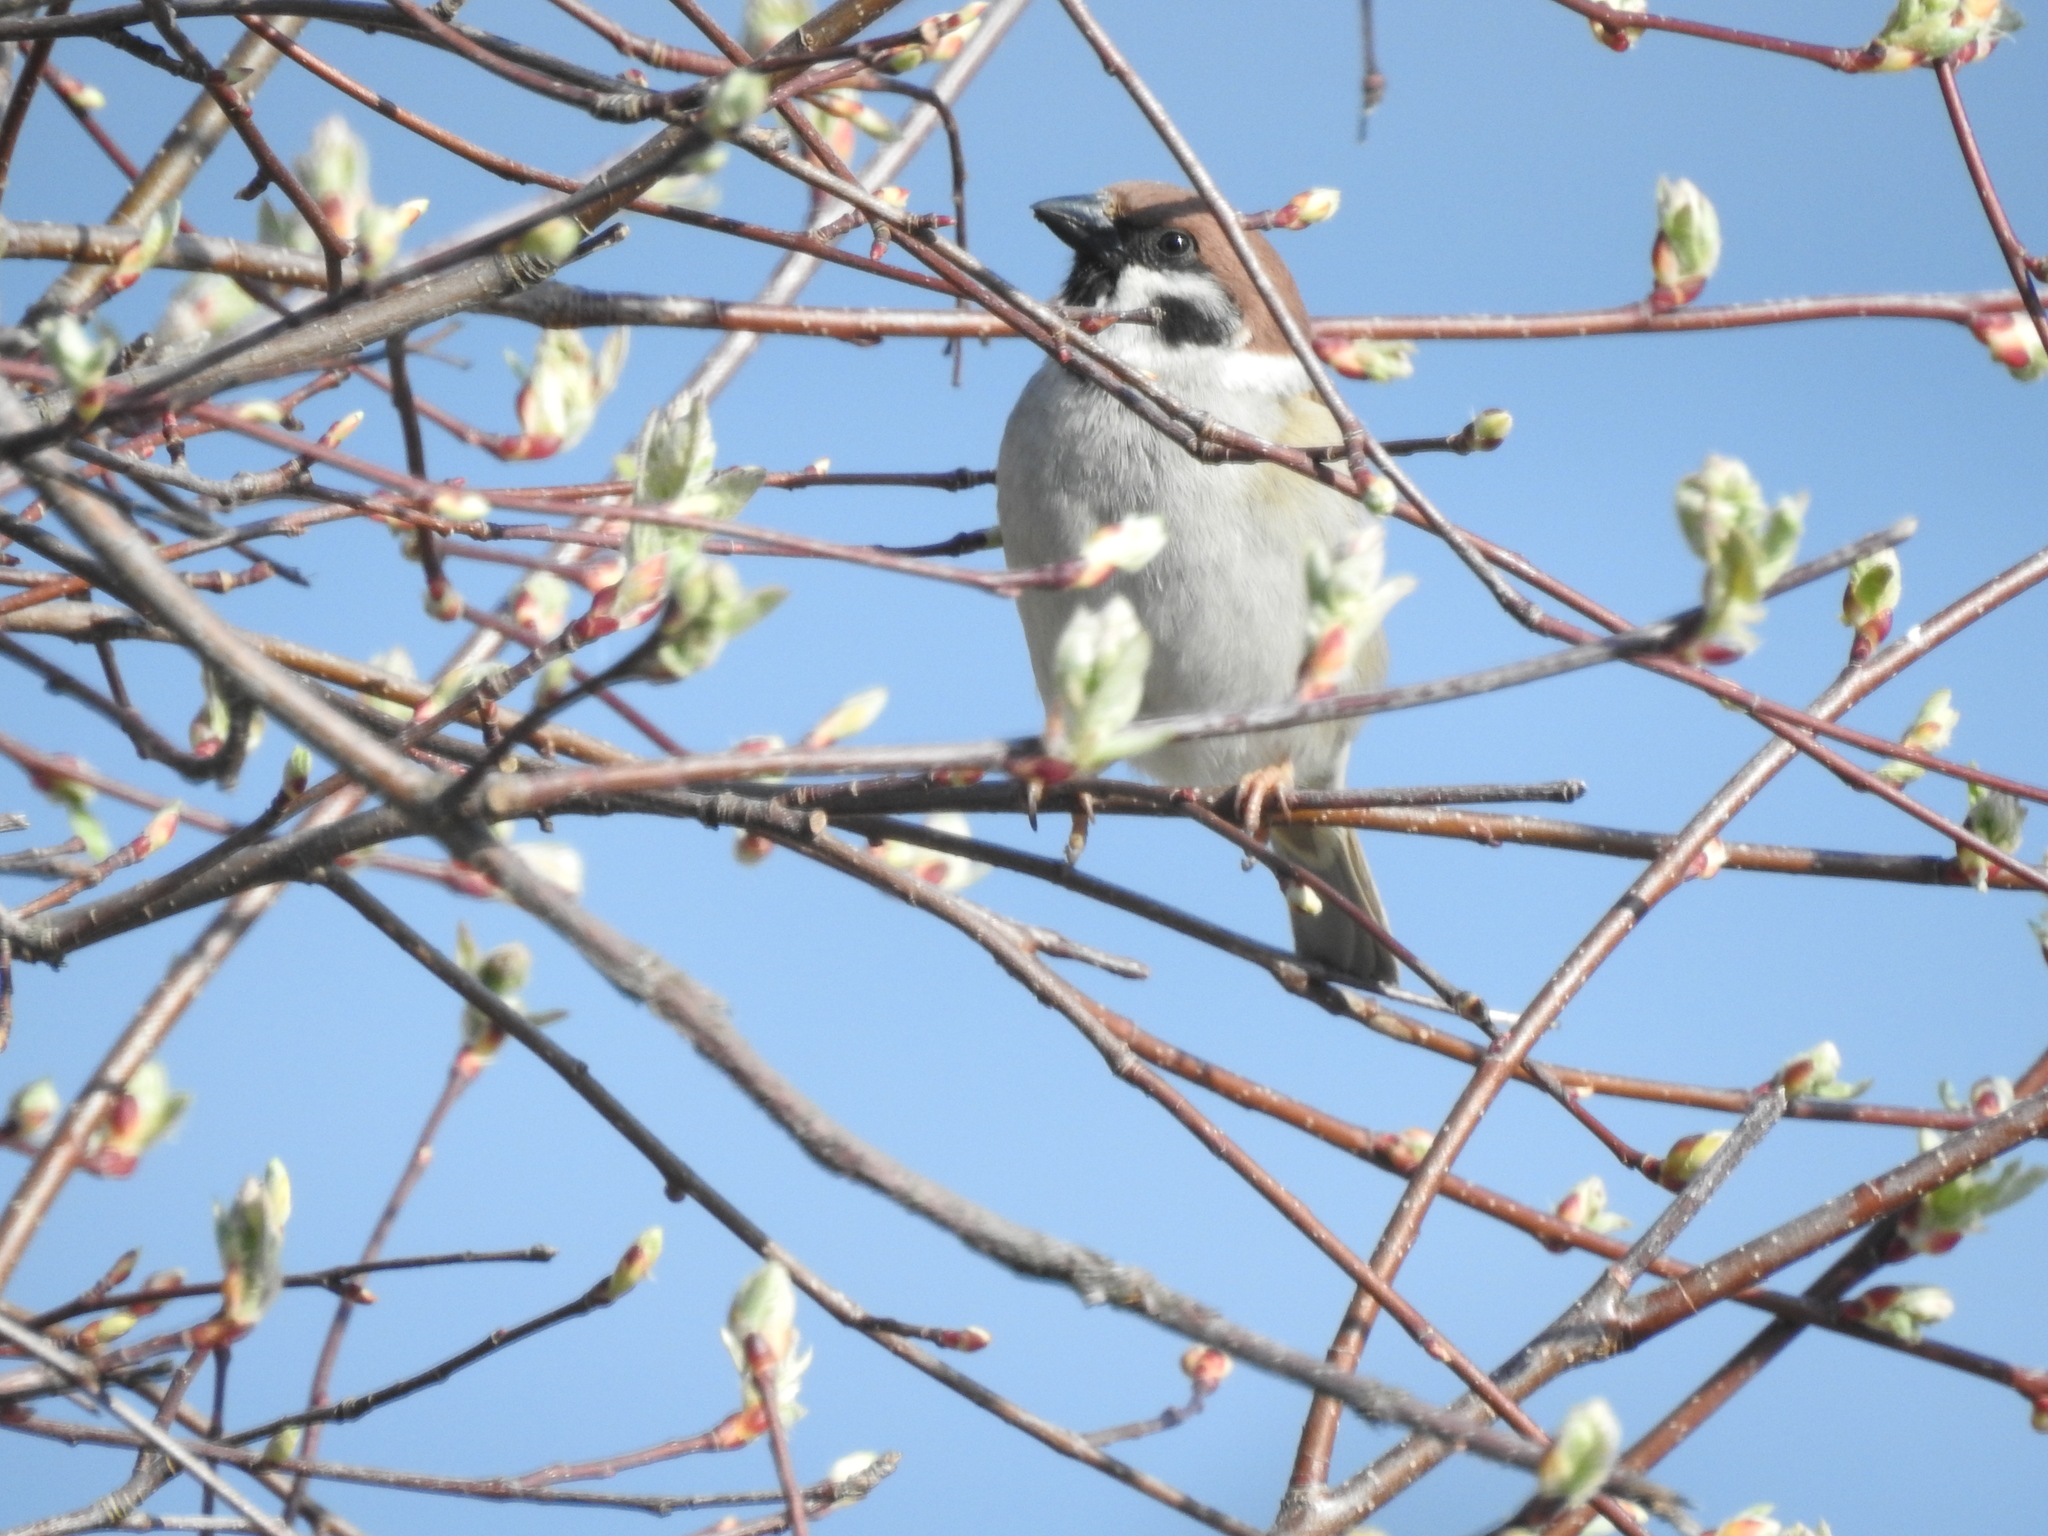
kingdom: Animalia
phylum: Chordata
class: Aves
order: Passeriformes
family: Passeridae
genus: Passer
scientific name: Passer montanus
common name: Eurasian tree sparrow
